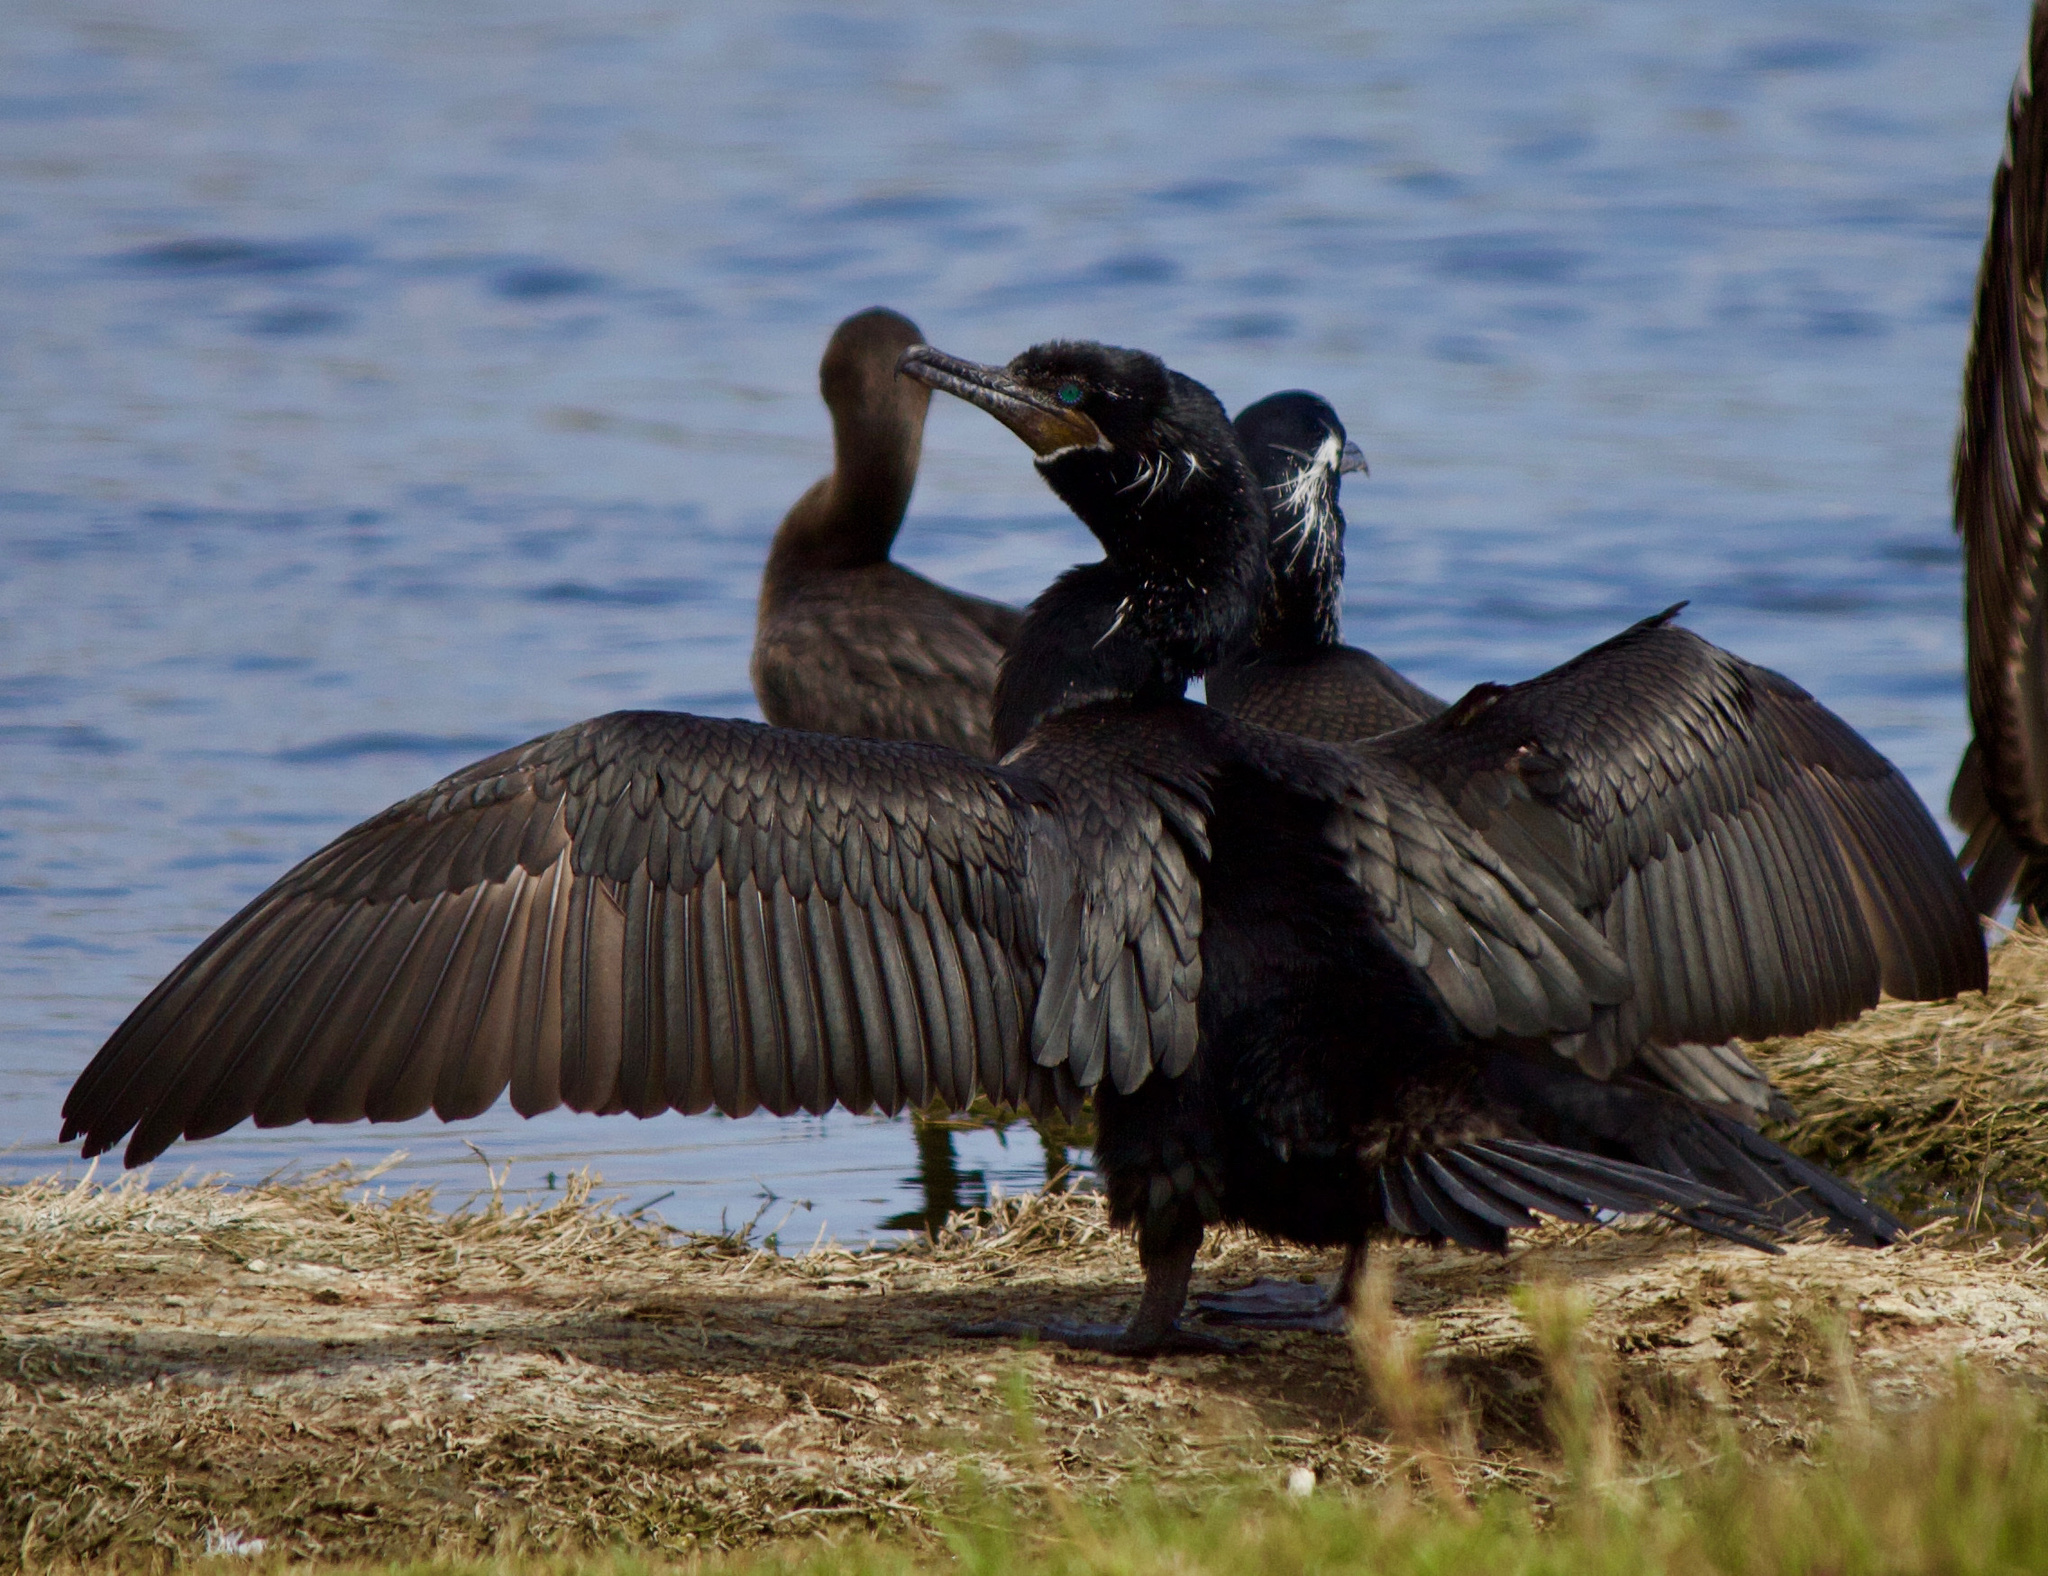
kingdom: Animalia
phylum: Chordata
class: Aves
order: Suliformes
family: Phalacrocoracidae
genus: Phalacrocorax
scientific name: Phalacrocorax brasilianus
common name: Neotropic cormorant
